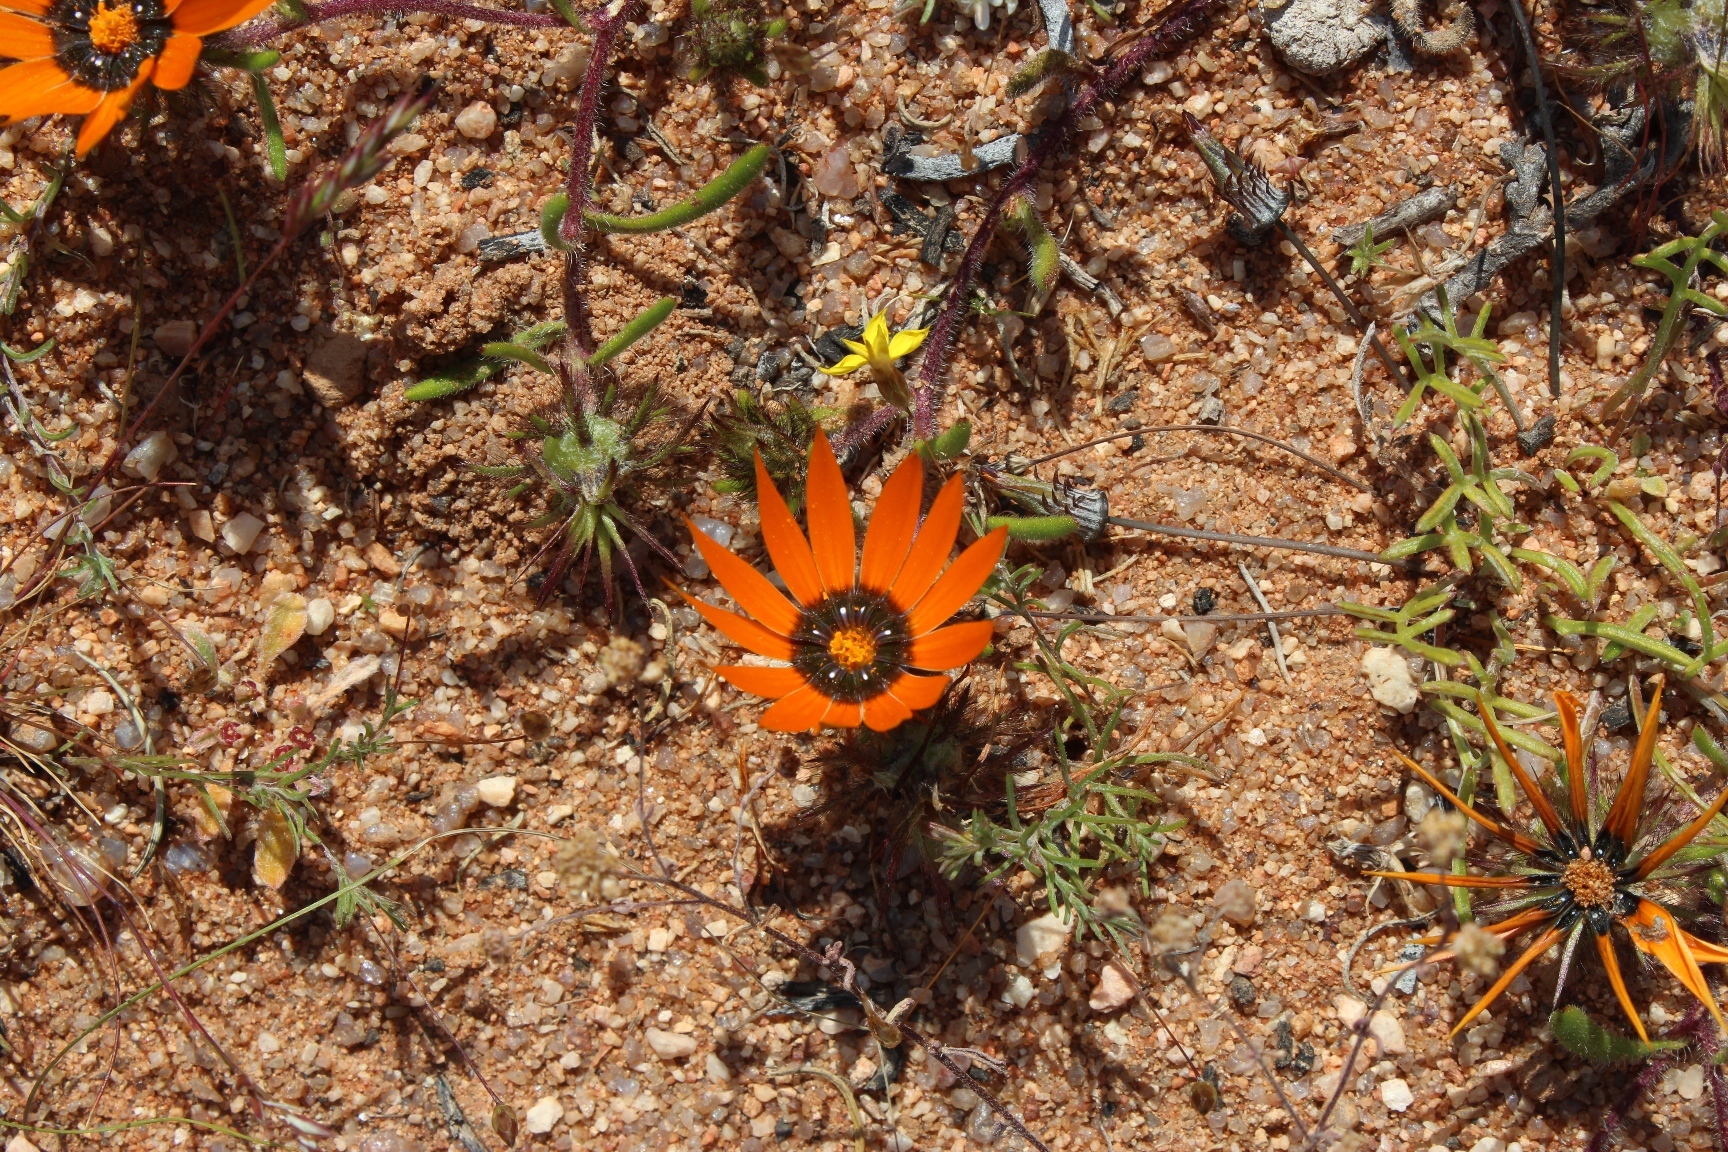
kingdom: Plantae
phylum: Tracheophyta
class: Magnoliopsida
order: Asterales
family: Asteraceae
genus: Gorteria
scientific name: Gorteria diffusa
